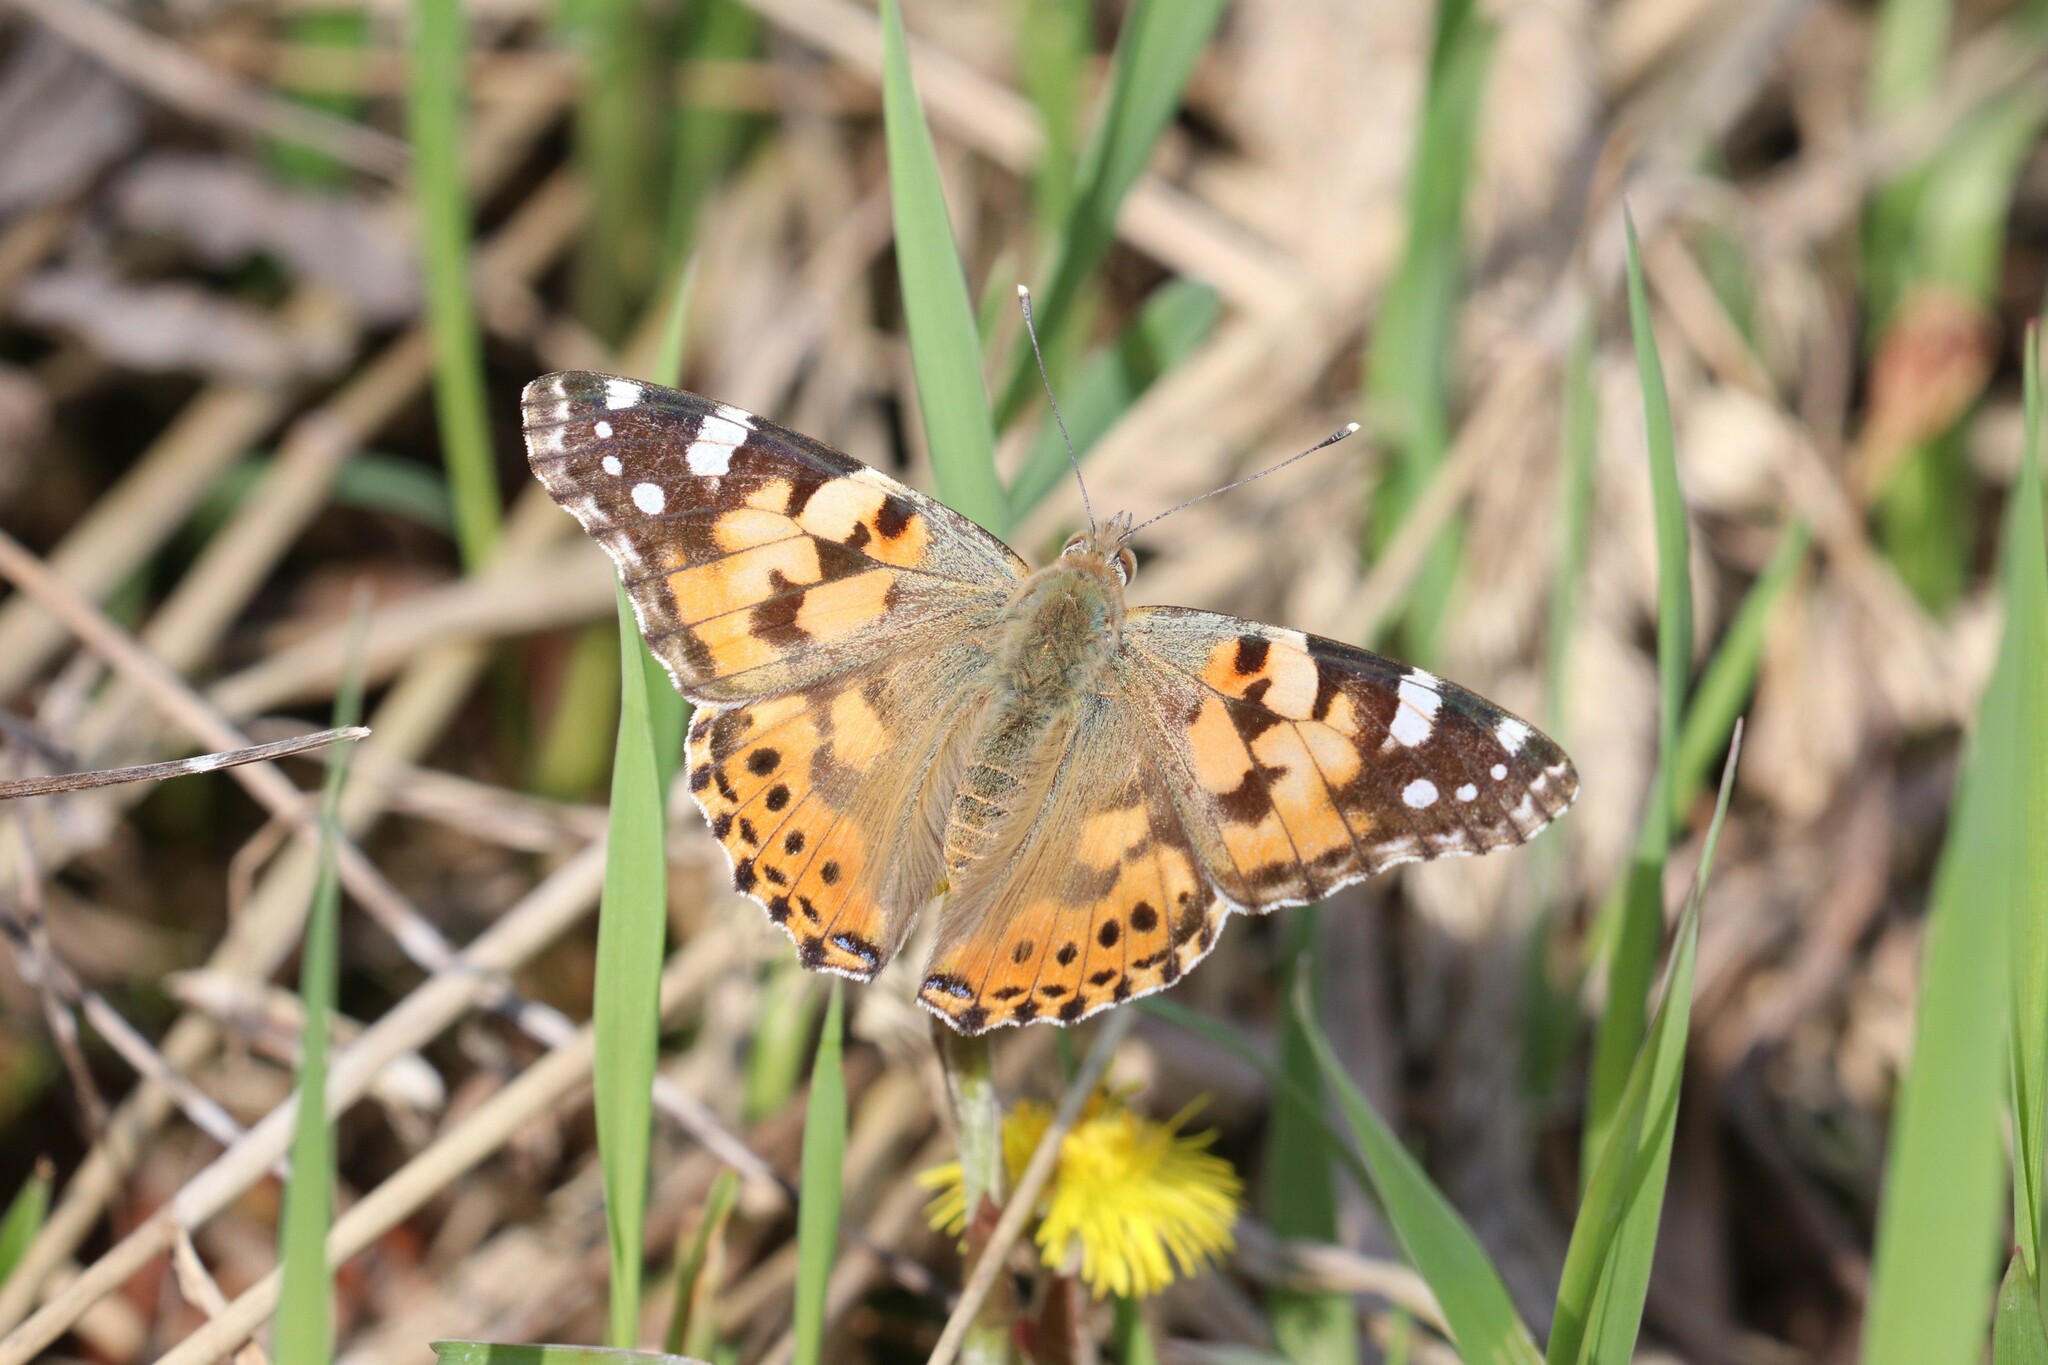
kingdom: Animalia
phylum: Arthropoda
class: Insecta
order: Lepidoptera
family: Nymphalidae
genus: Vanessa
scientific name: Vanessa cardui
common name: Painted lady
